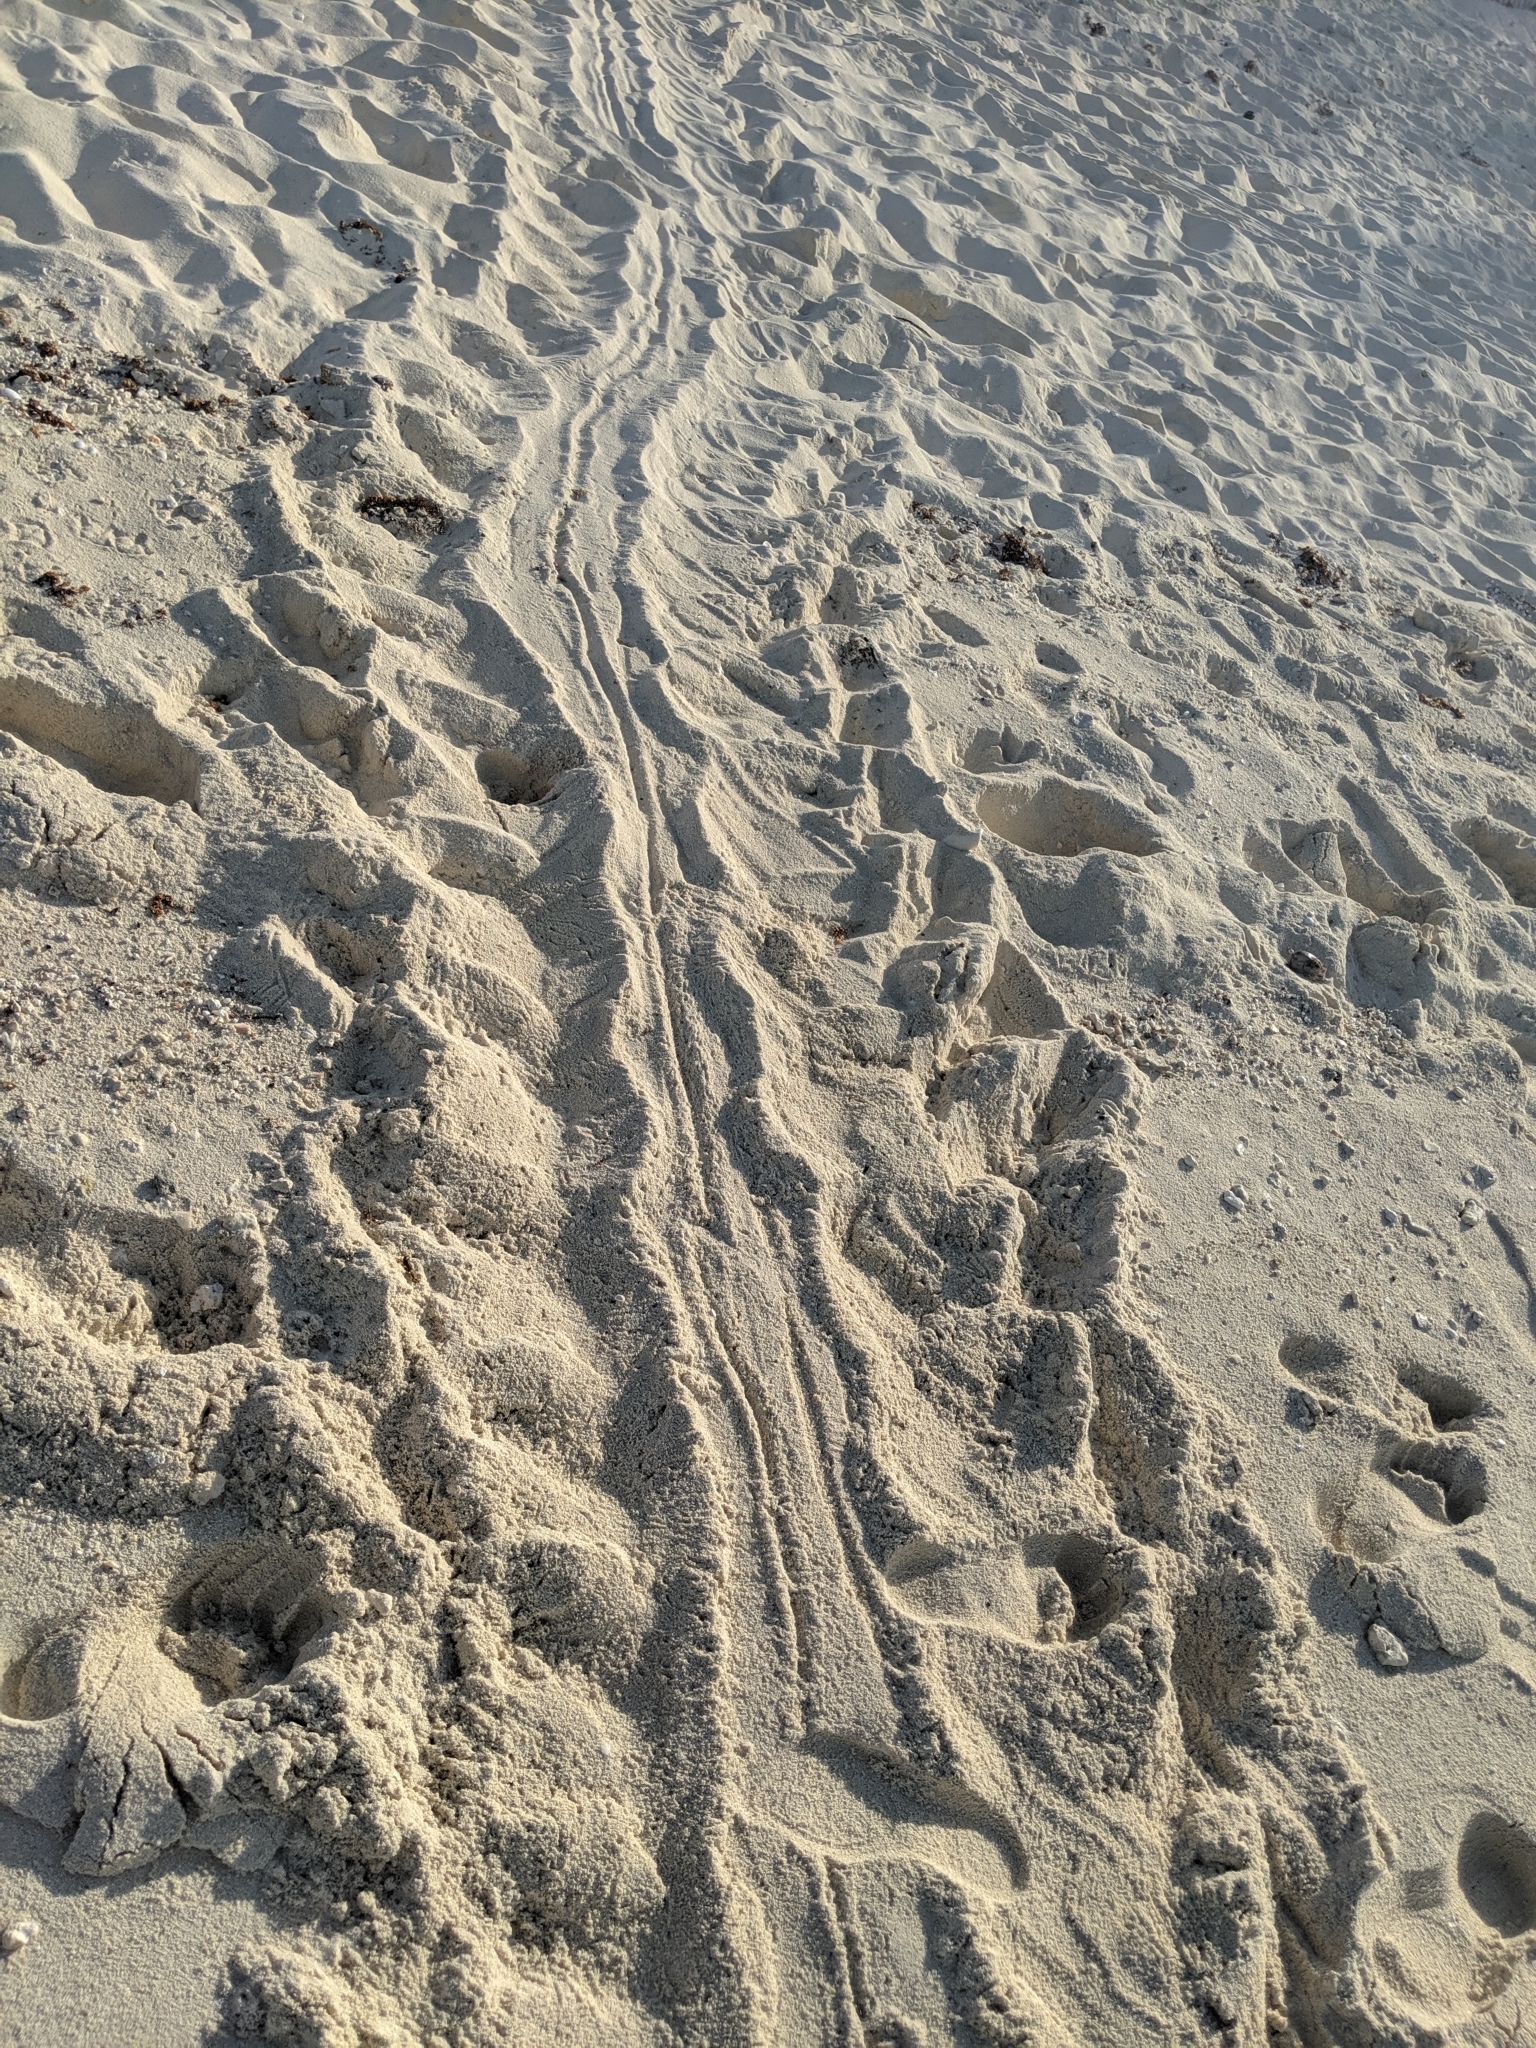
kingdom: Animalia
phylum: Chordata
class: Testudines
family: Cheloniidae
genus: Chelonia
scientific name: Chelonia mydas
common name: Green turtle
